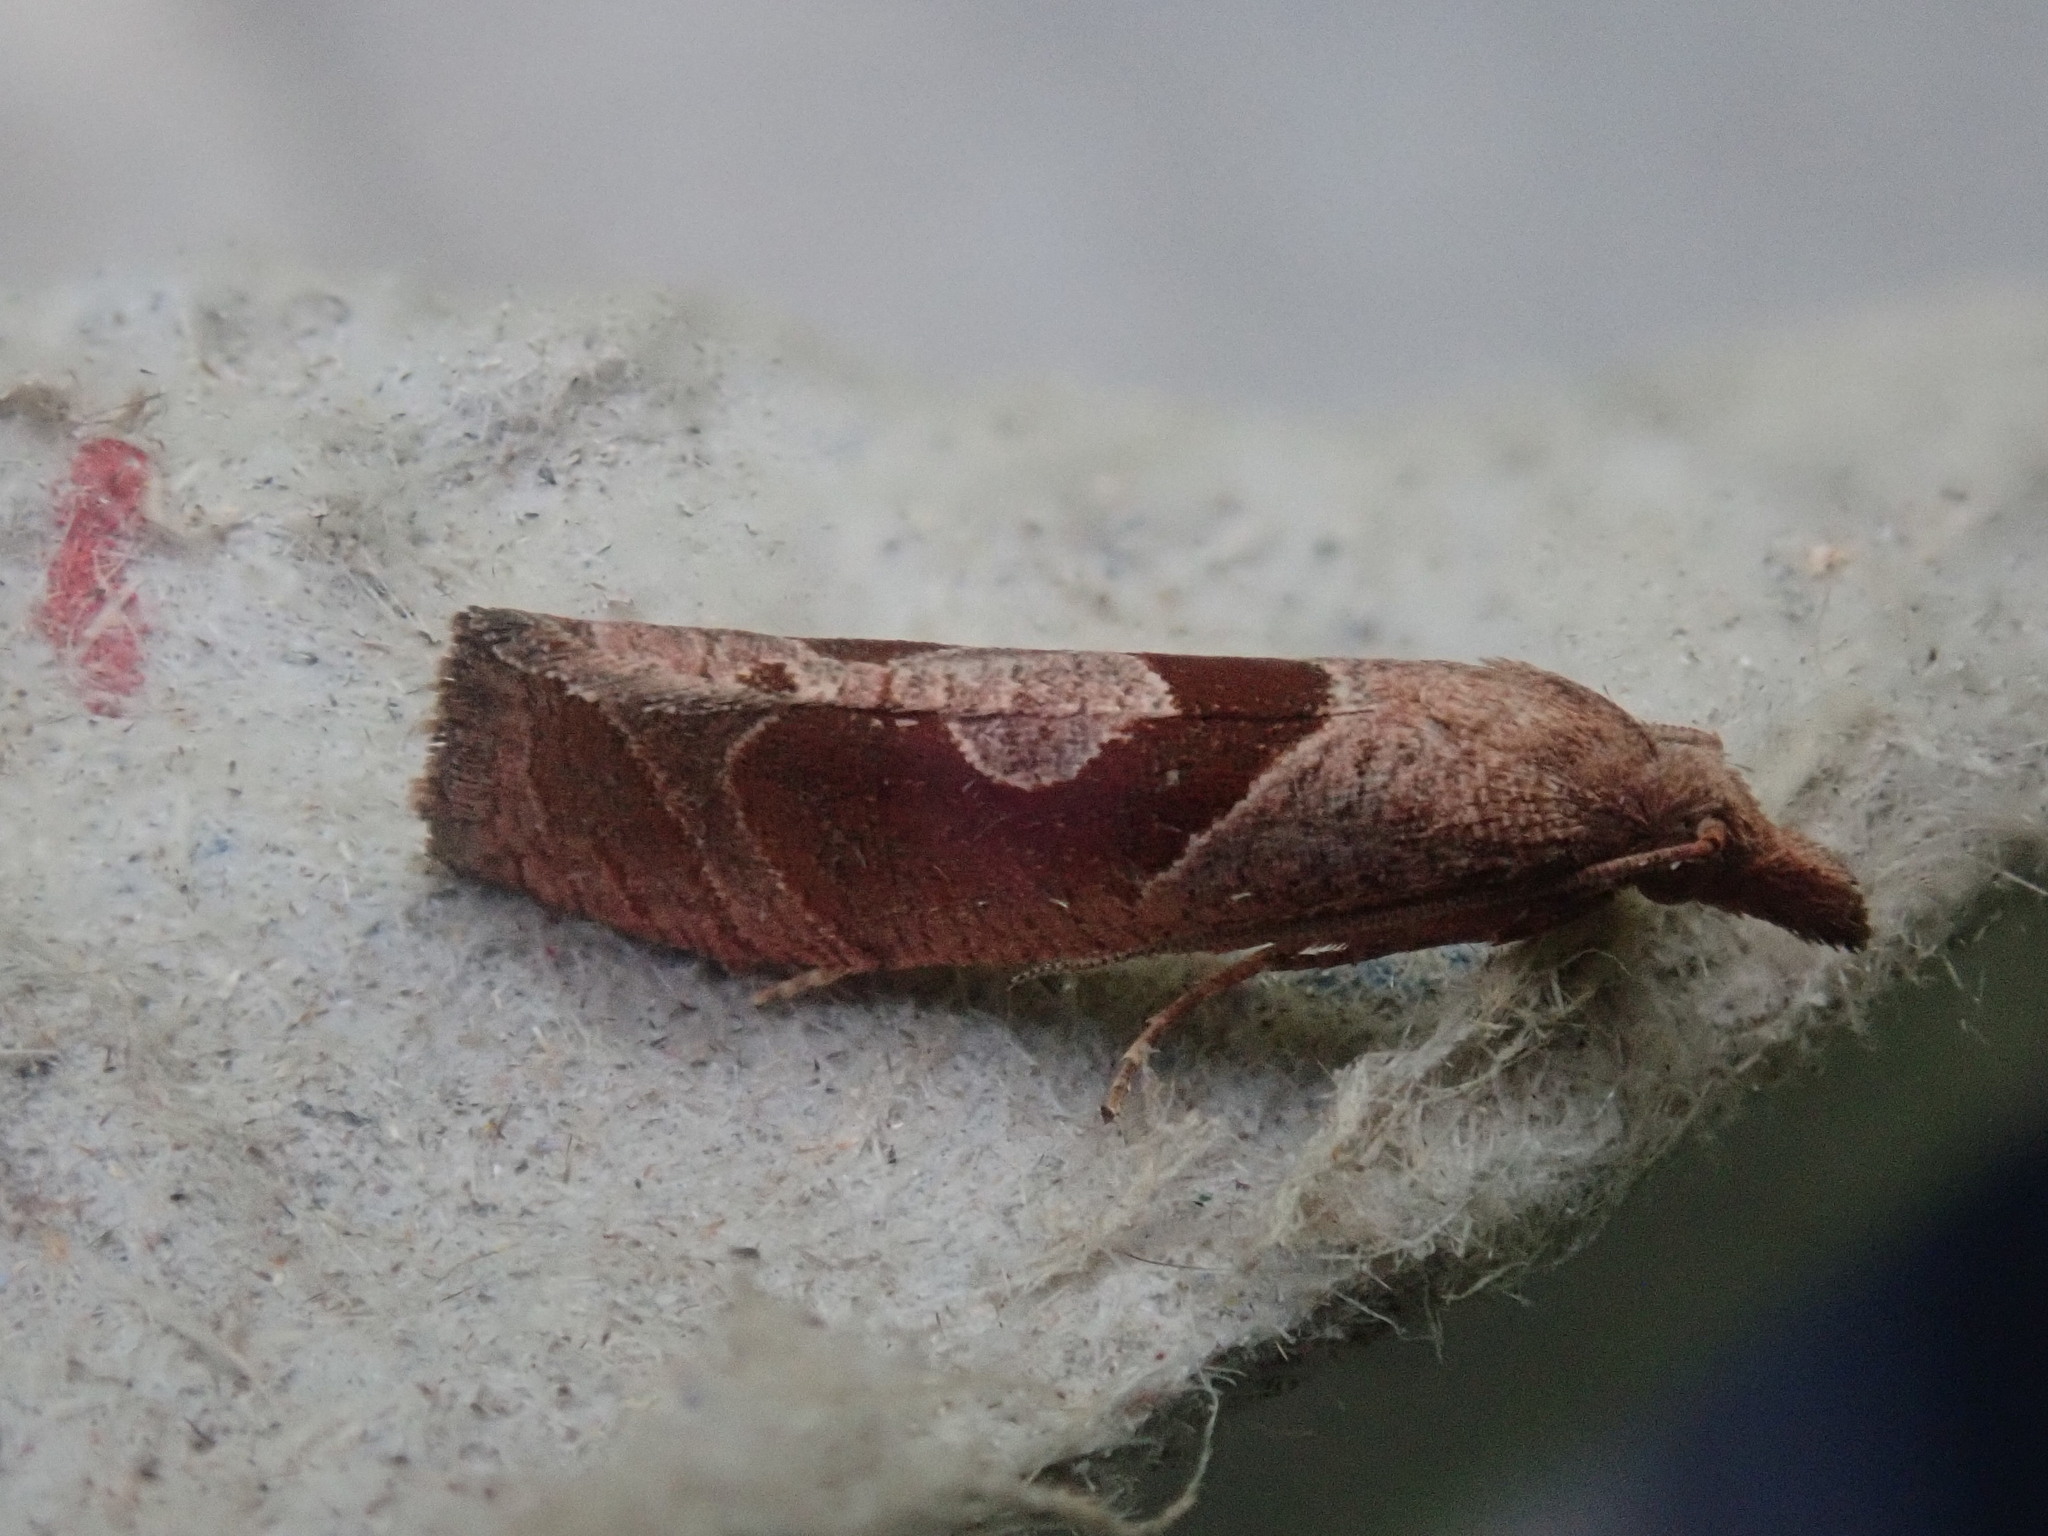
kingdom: Animalia
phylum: Arthropoda
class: Insecta
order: Lepidoptera
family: Tortricidae
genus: Pelochrista
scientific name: Pelochrista similiana
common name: Similar eucosma
